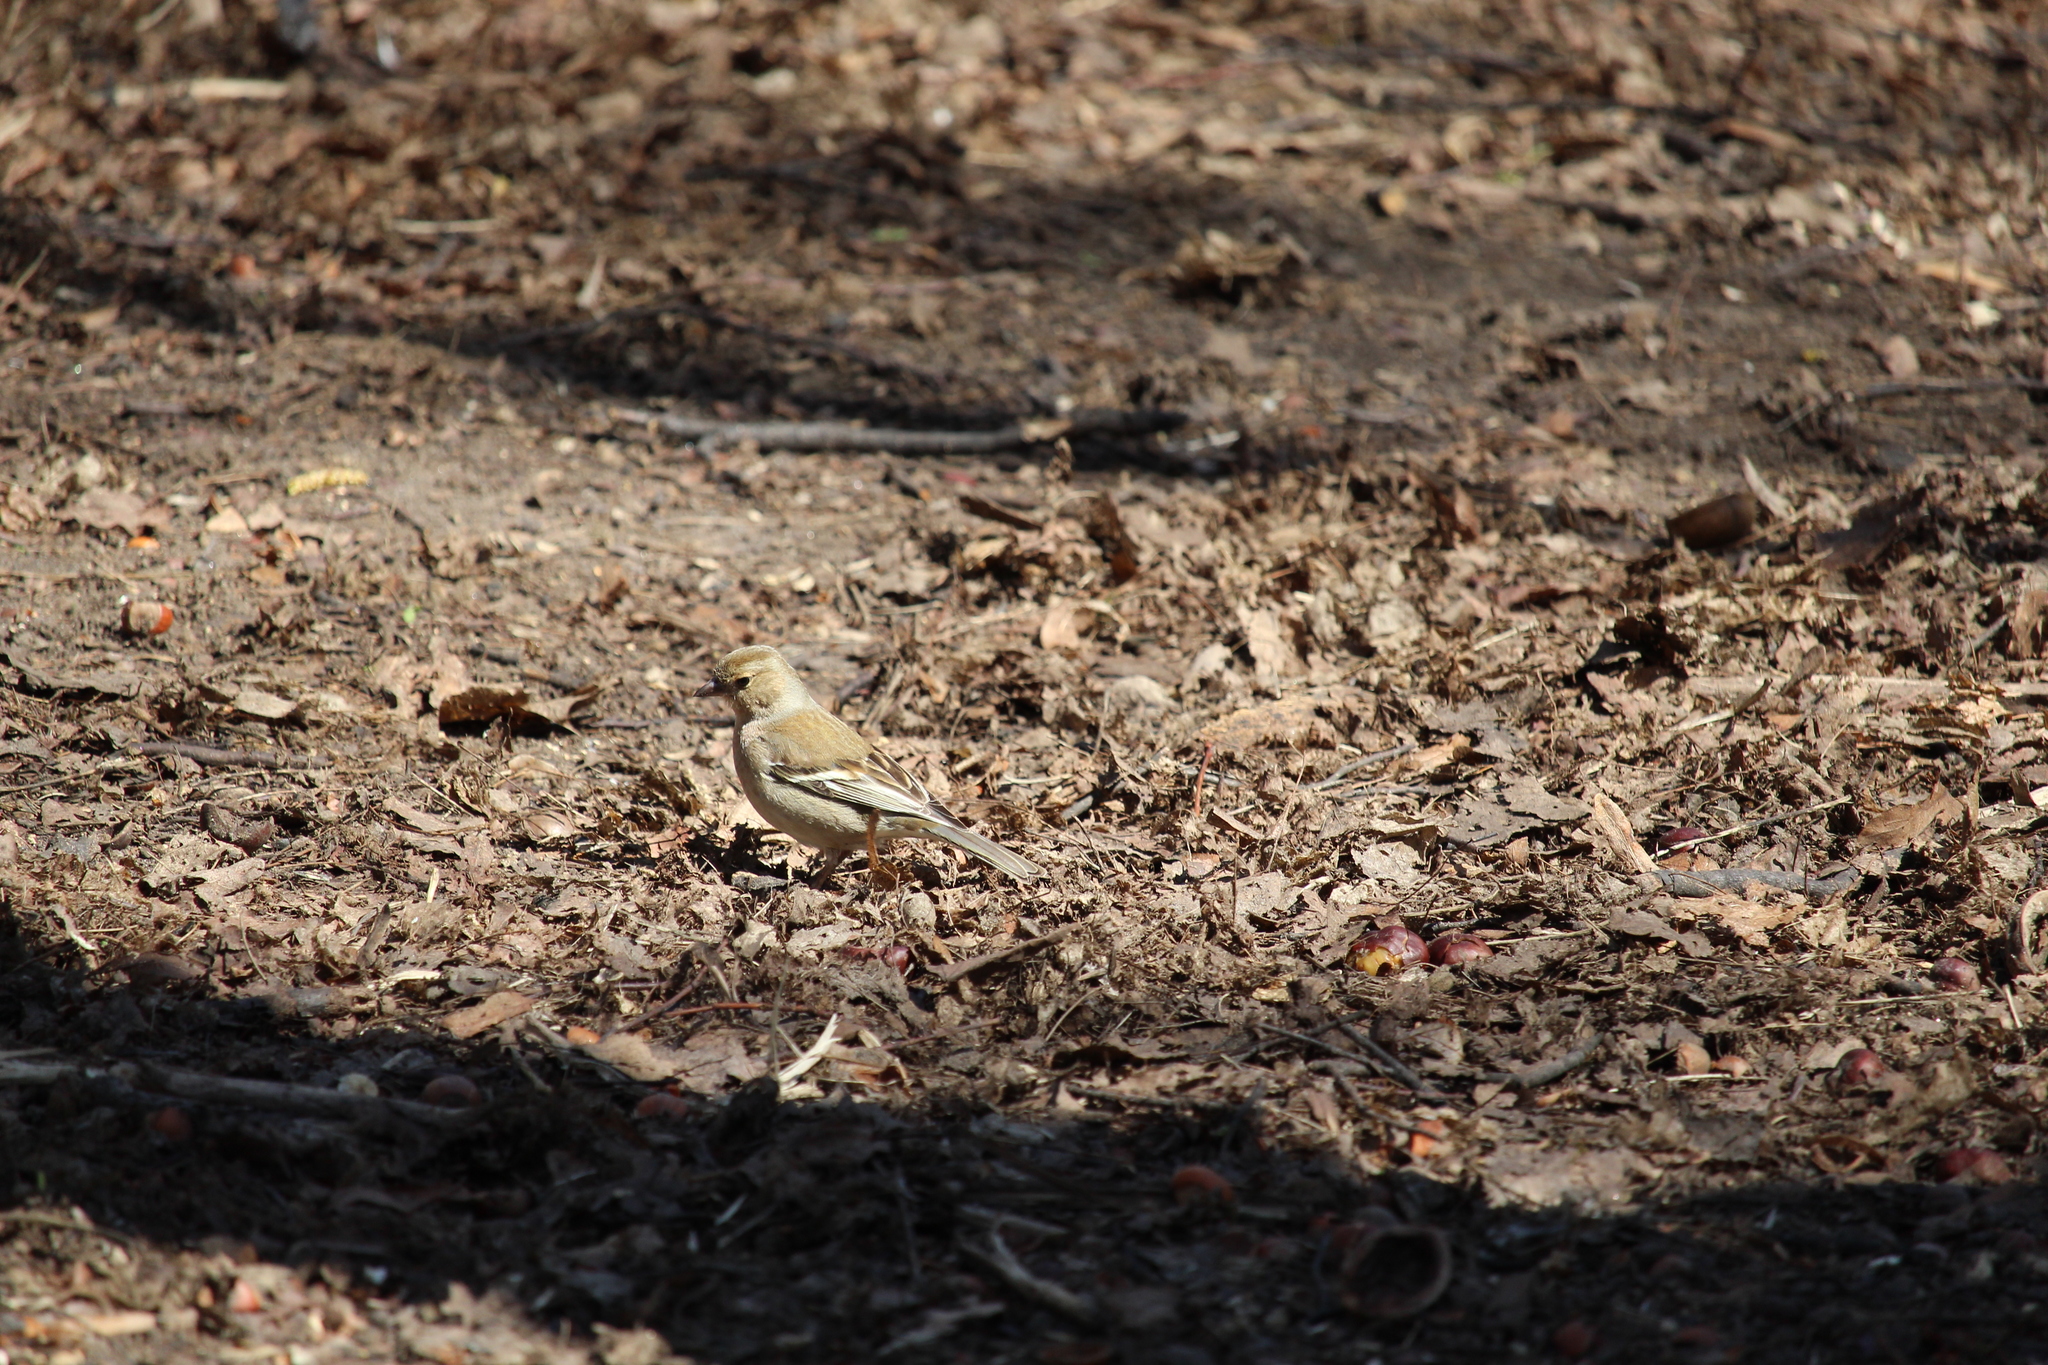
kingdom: Animalia
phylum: Chordata
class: Aves
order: Passeriformes
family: Fringillidae
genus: Fringilla
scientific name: Fringilla coelebs
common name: Common chaffinch
